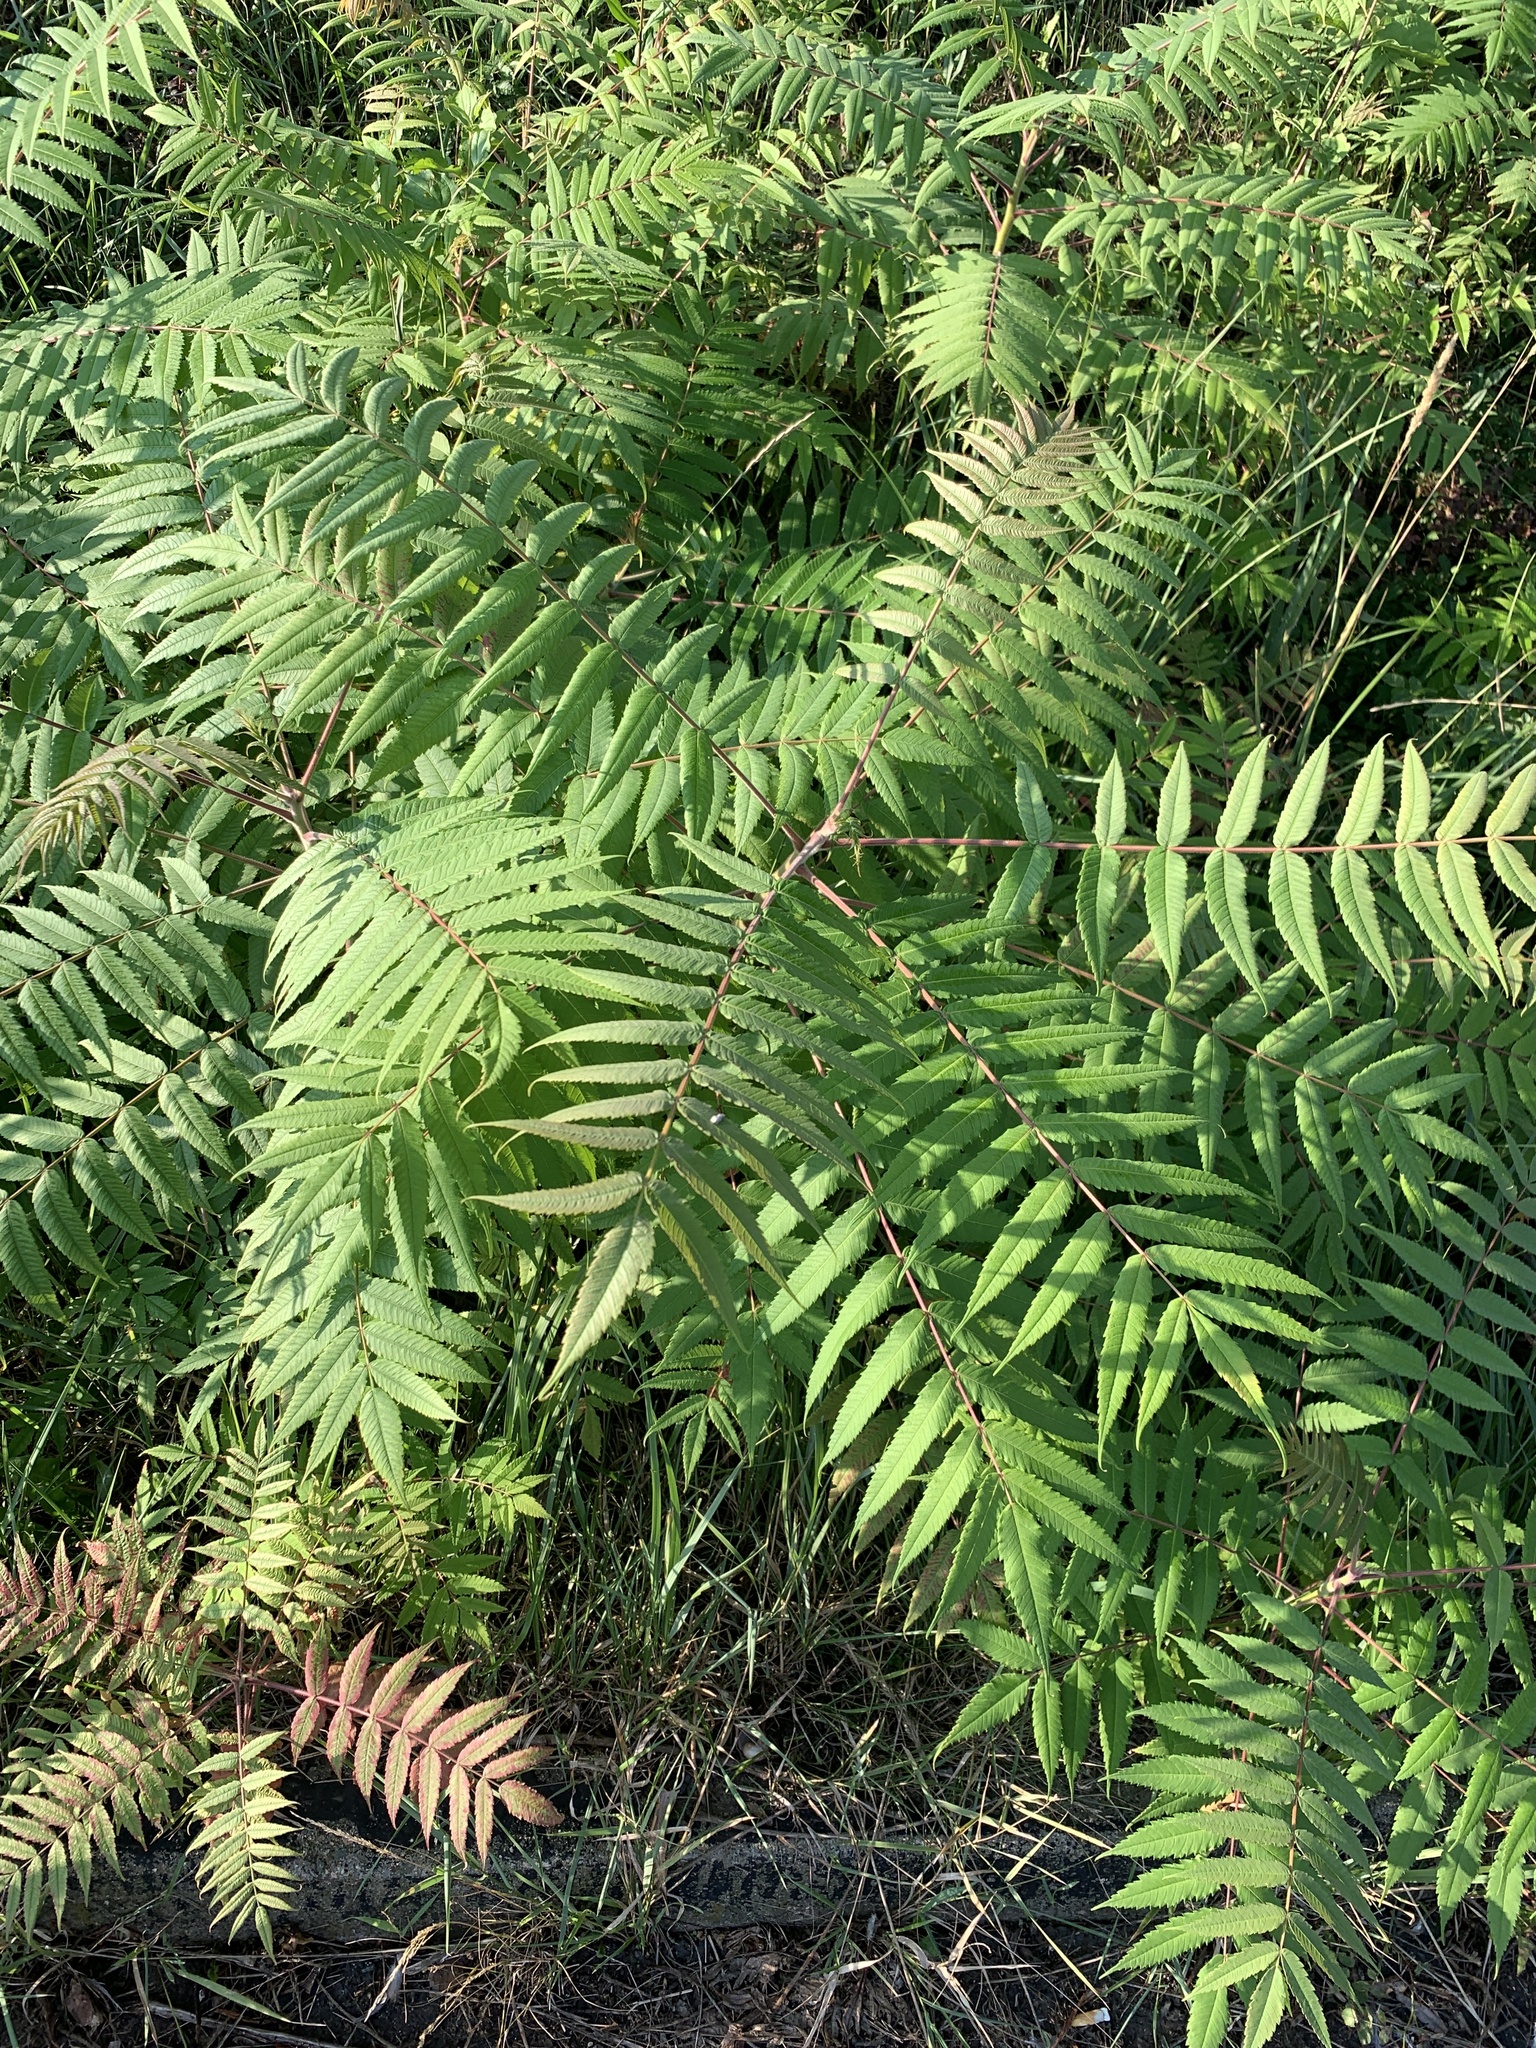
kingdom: Plantae
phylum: Tracheophyta
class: Magnoliopsida
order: Sapindales
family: Anacardiaceae
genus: Rhus
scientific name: Rhus typhina
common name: Staghorn sumac
